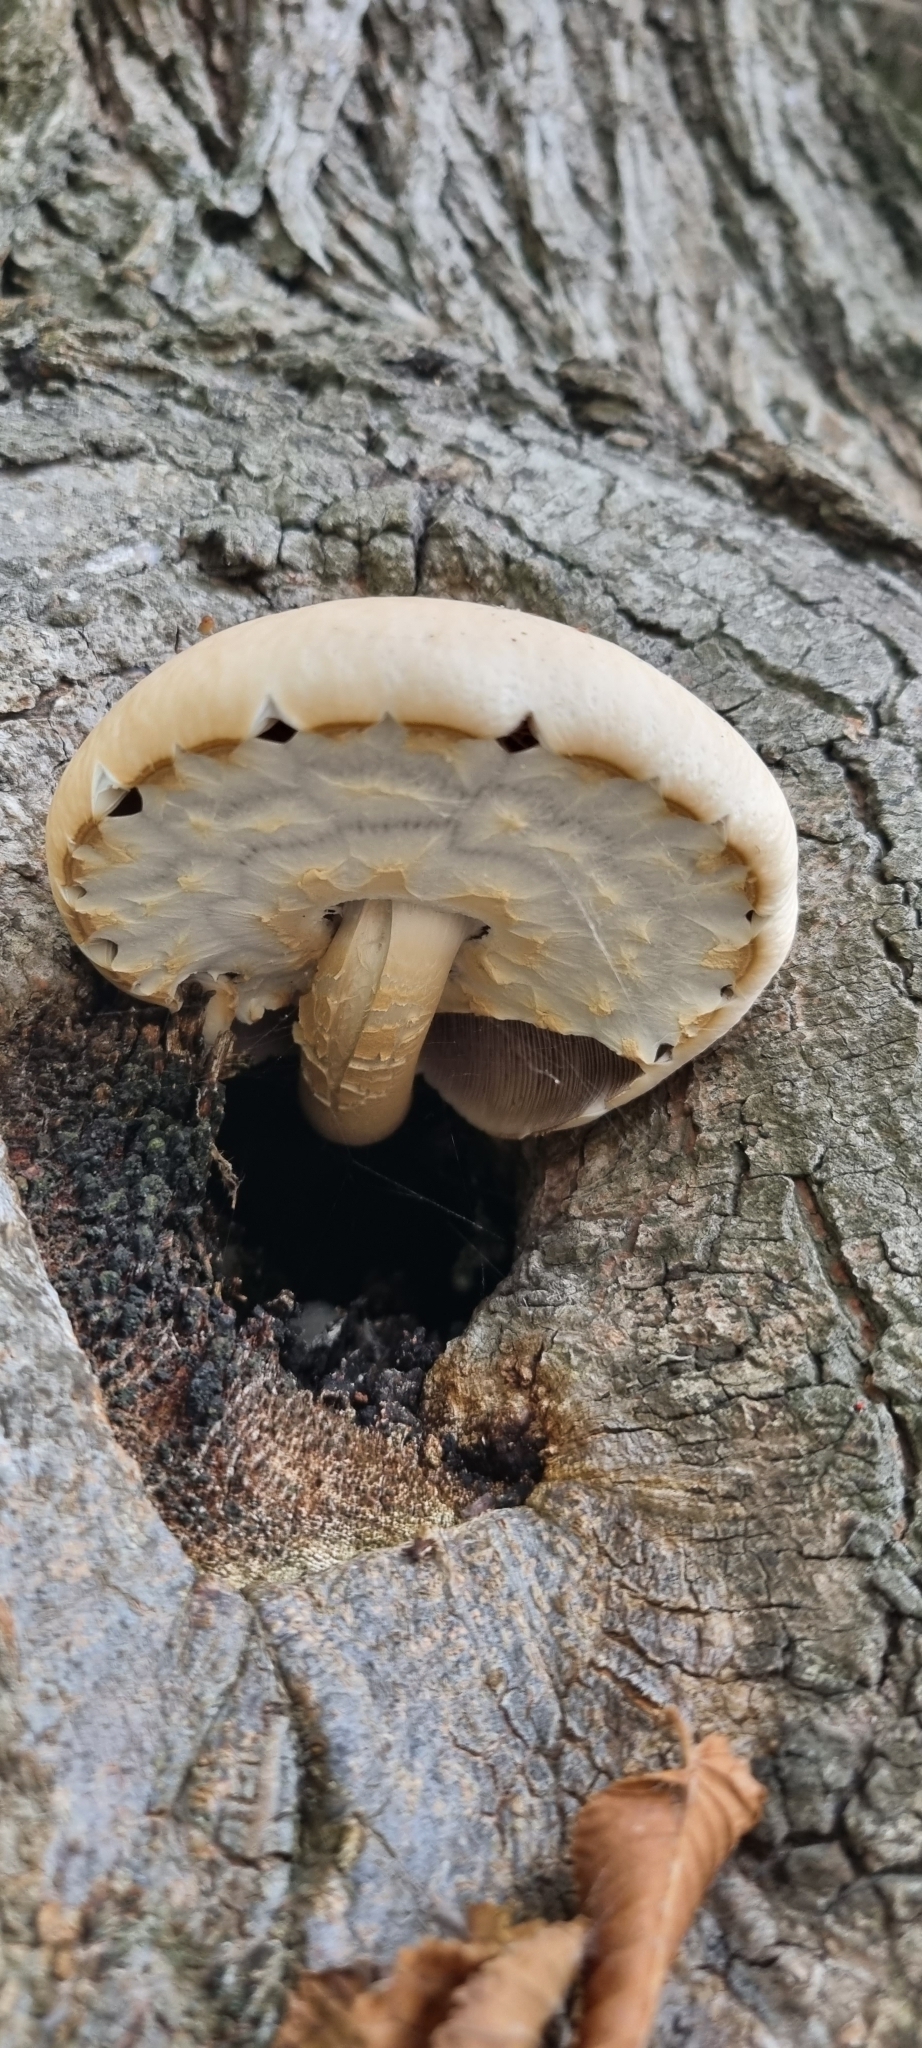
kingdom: Fungi
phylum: Basidiomycota
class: Agaricomycetes
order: Agaricales
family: Tubariaceae
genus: Cyclocybe
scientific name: Cyclocybe parasitica
